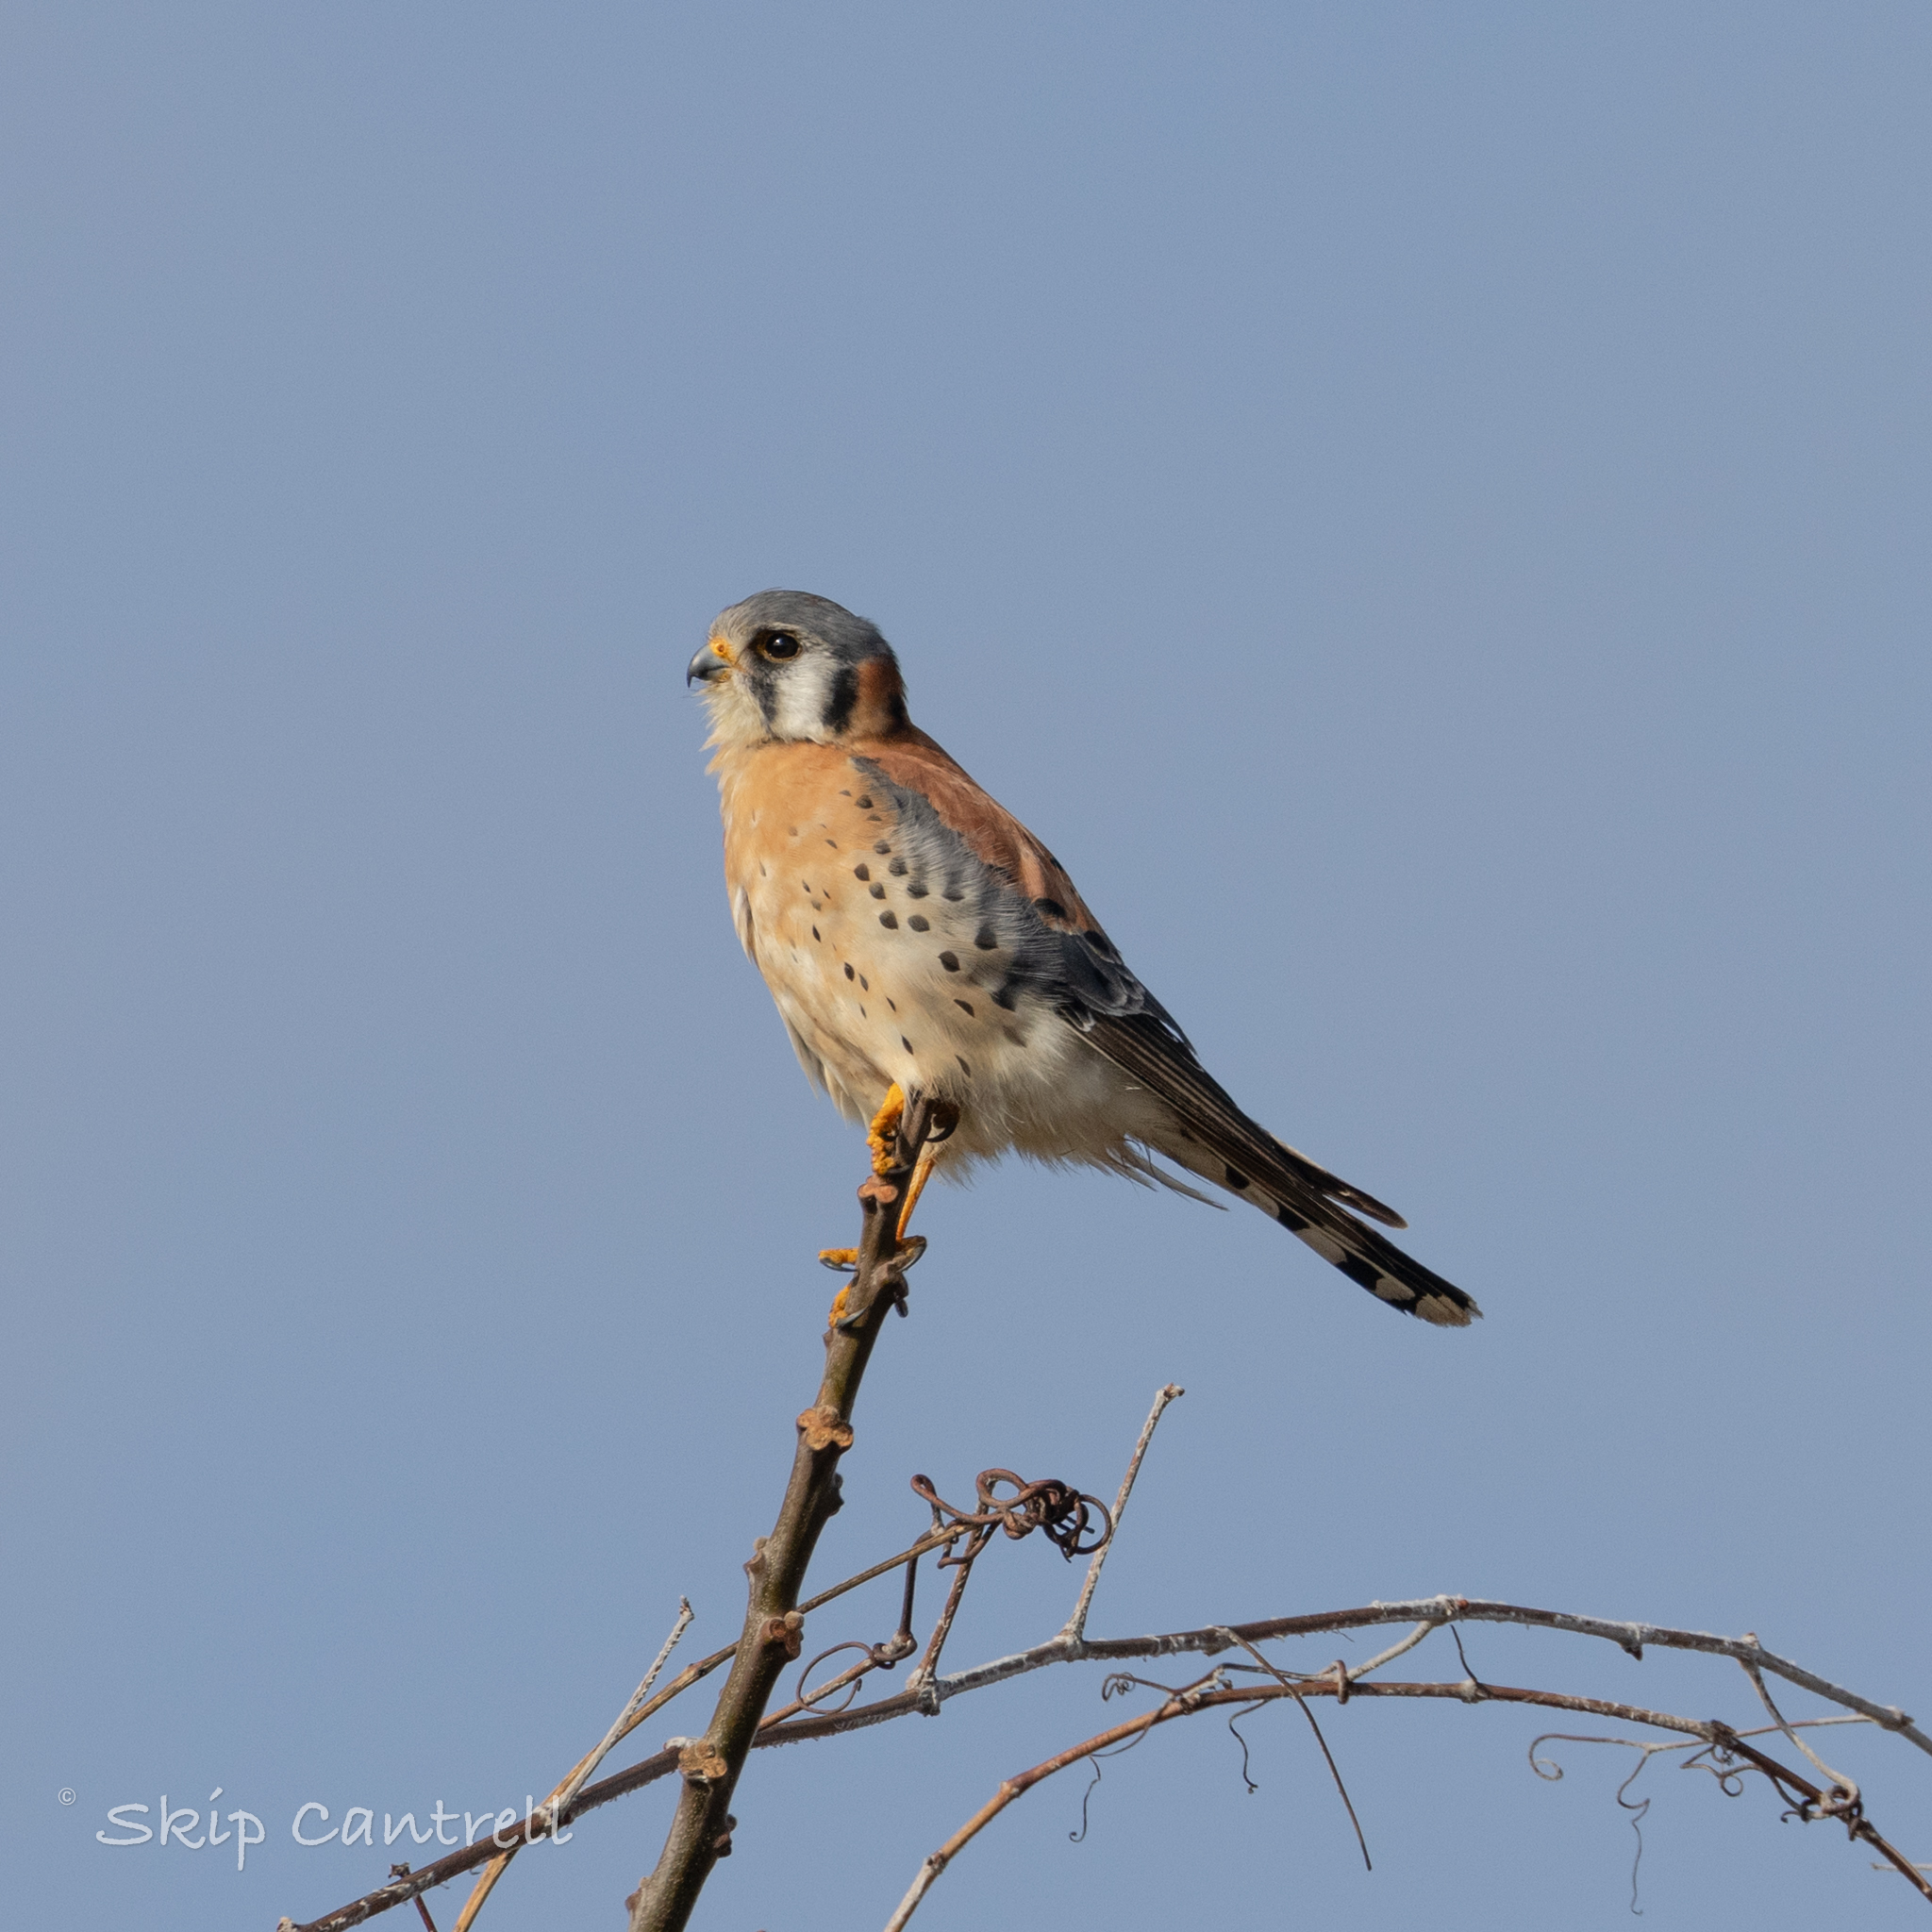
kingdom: Animalia
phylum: Chordata
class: Aves
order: Falconiformes
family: Falconidae
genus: Falco
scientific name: Falco sparverius
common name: American kestrel
